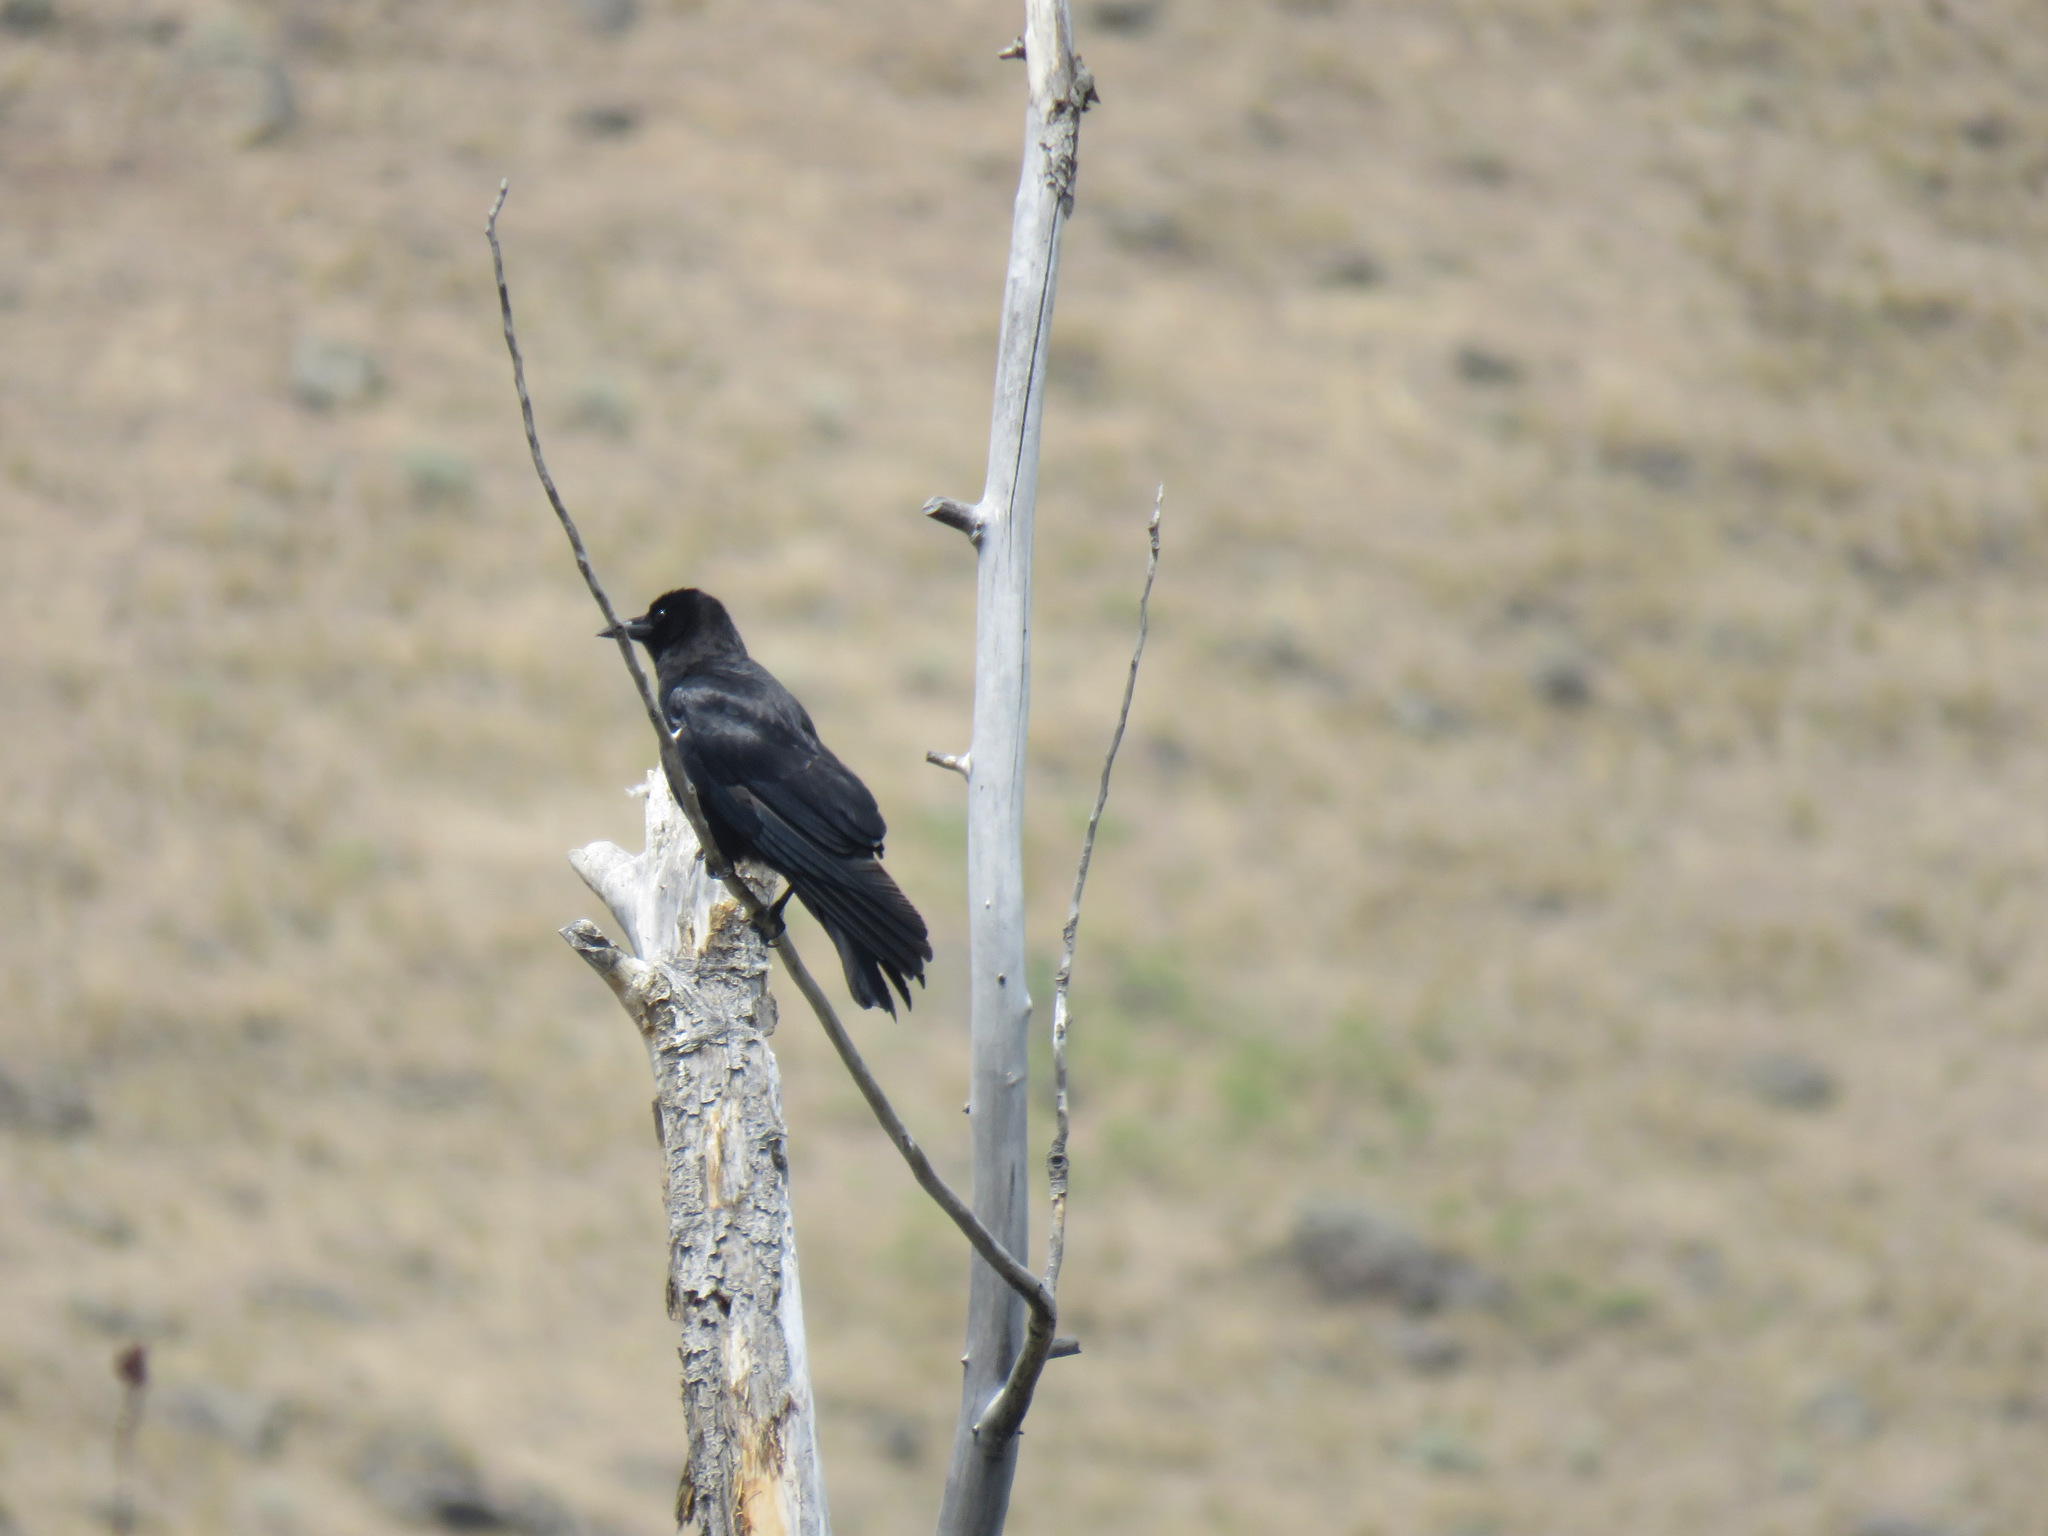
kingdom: Animalia
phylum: Chordata
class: Aves
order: Passeriformes
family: Corvidae
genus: Corvus
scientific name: Corvus brachyrhynchos
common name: American crow
